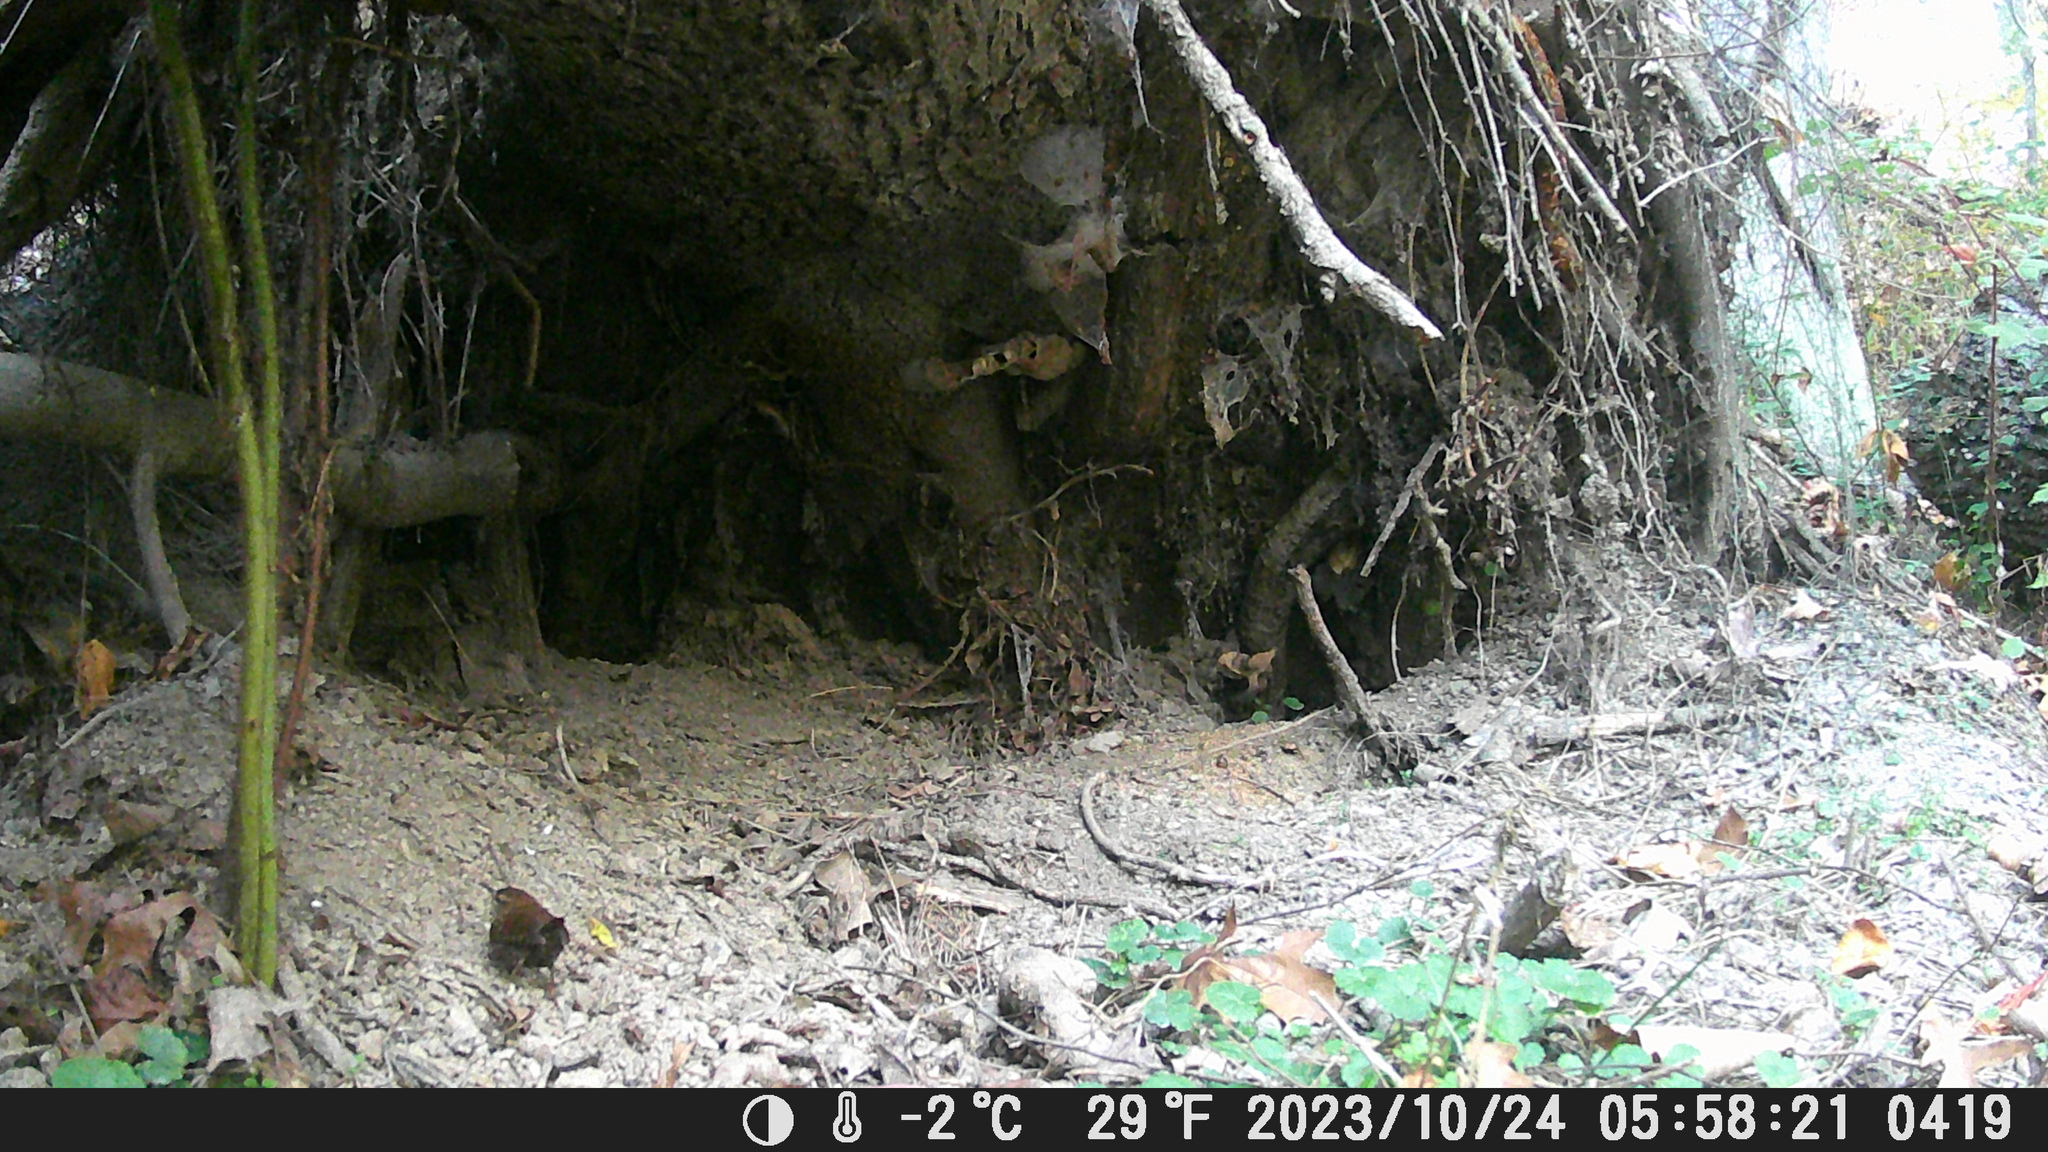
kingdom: Animalia
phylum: Chordata
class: Aves
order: Passeriformes
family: Troglodytidae
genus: Troglodytes
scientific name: Troglodytes hiemalis
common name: Winter wren
